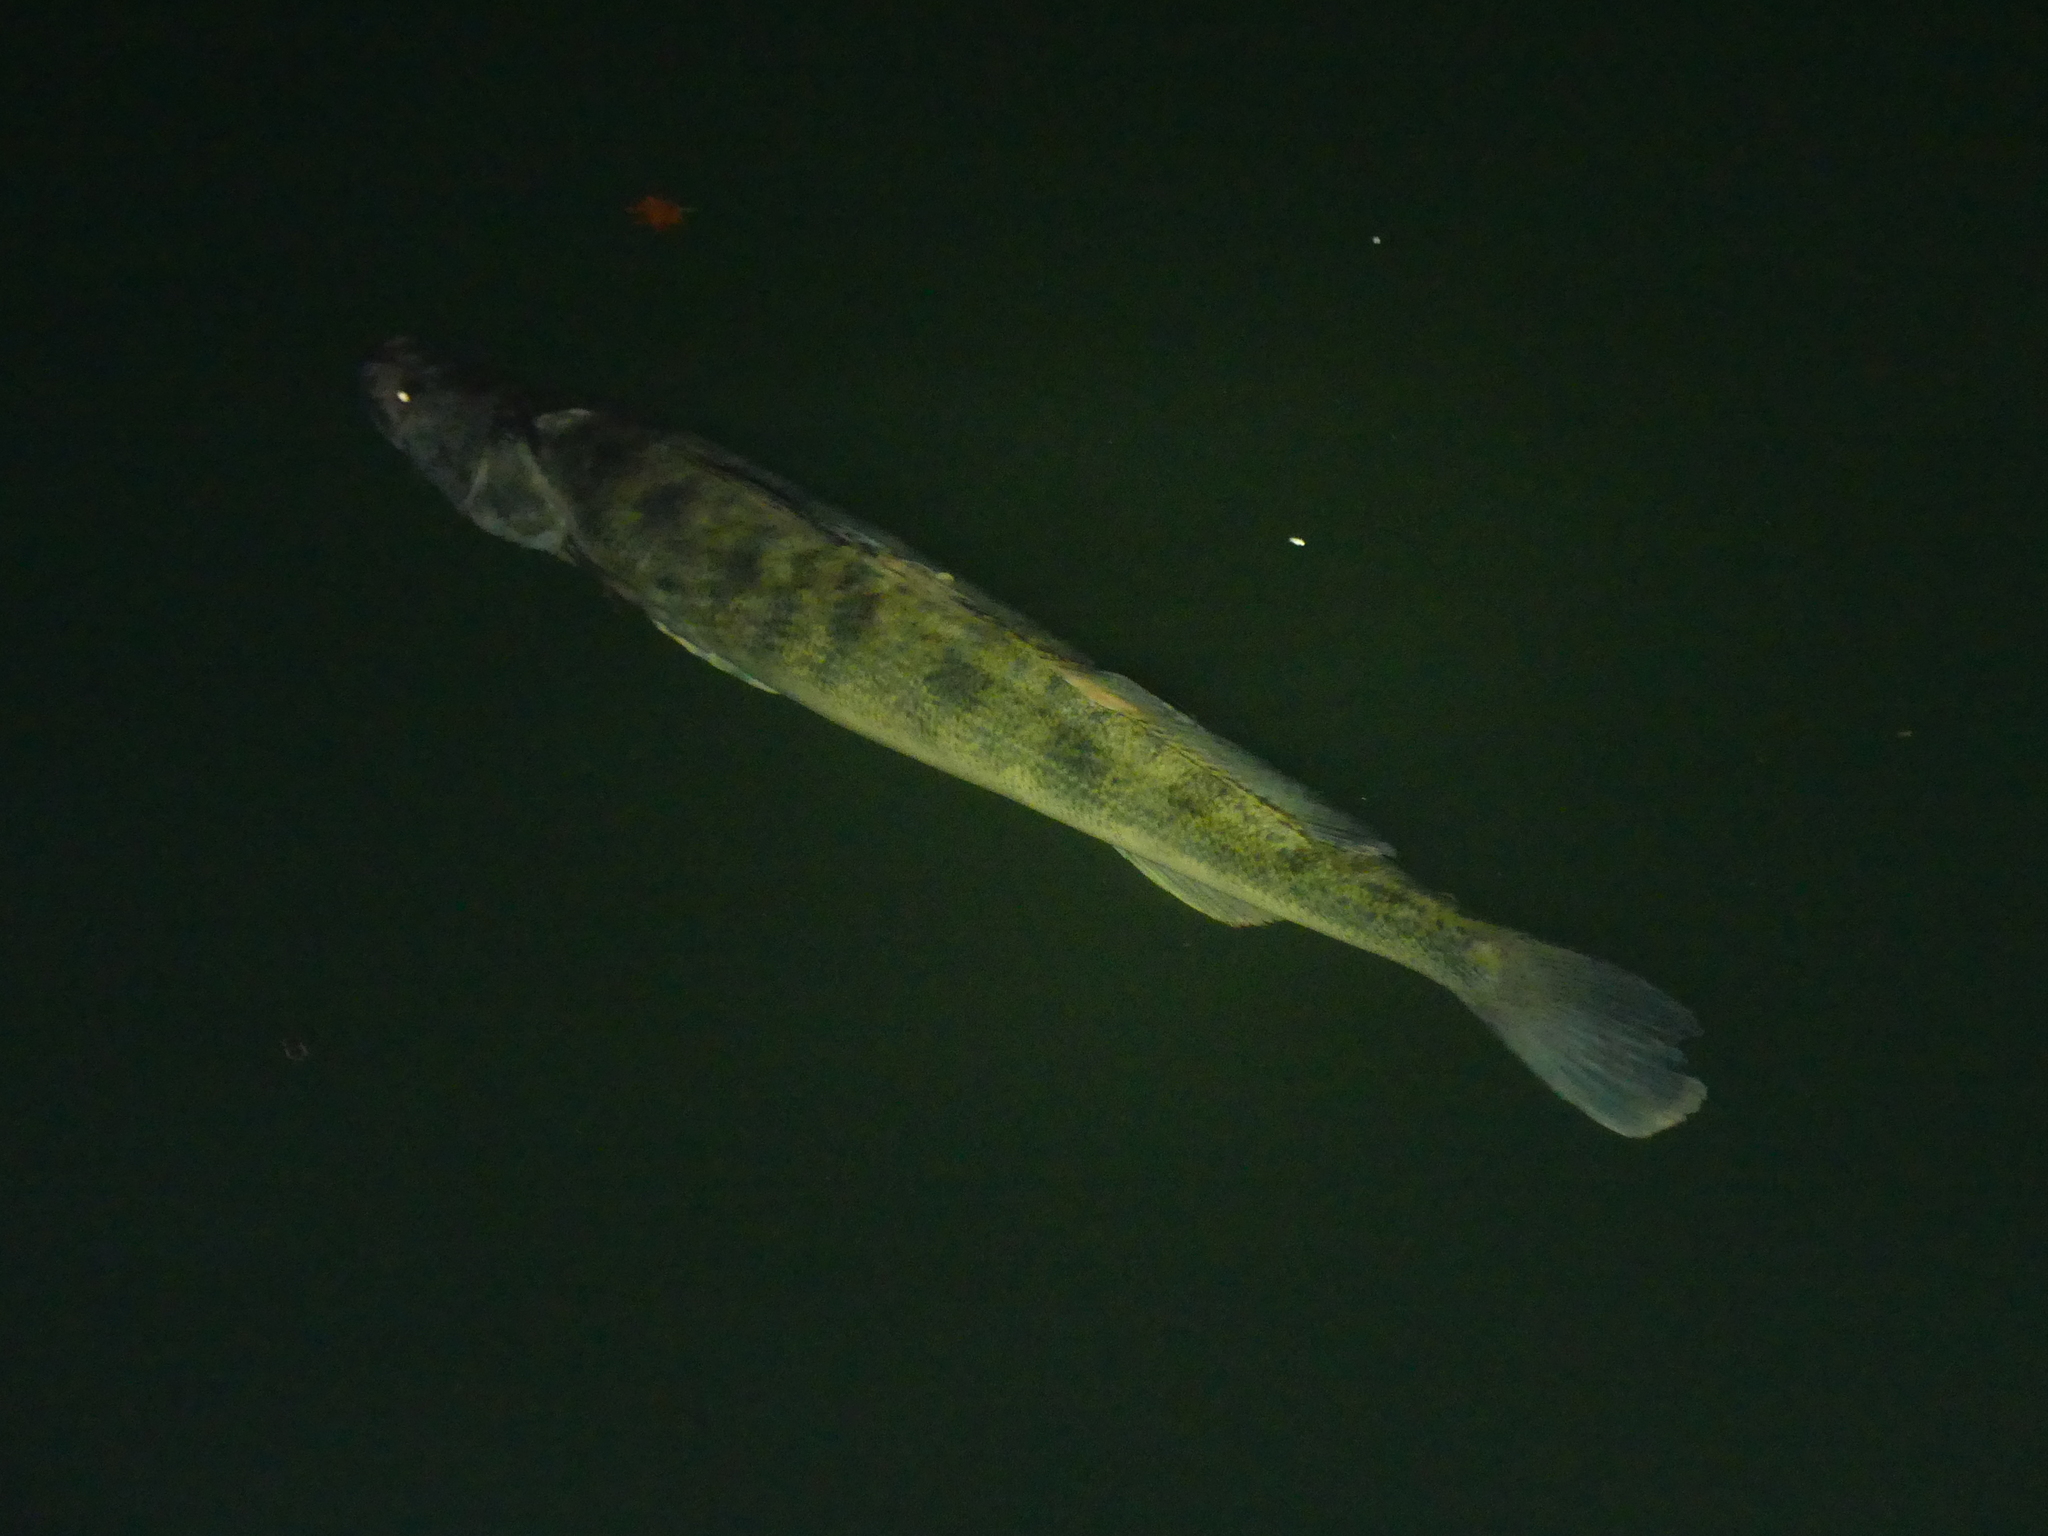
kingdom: Animalia
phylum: Chordata
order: Perciformes
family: Percidae
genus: Sander
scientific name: Sander lucioperca
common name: Pikeperch
